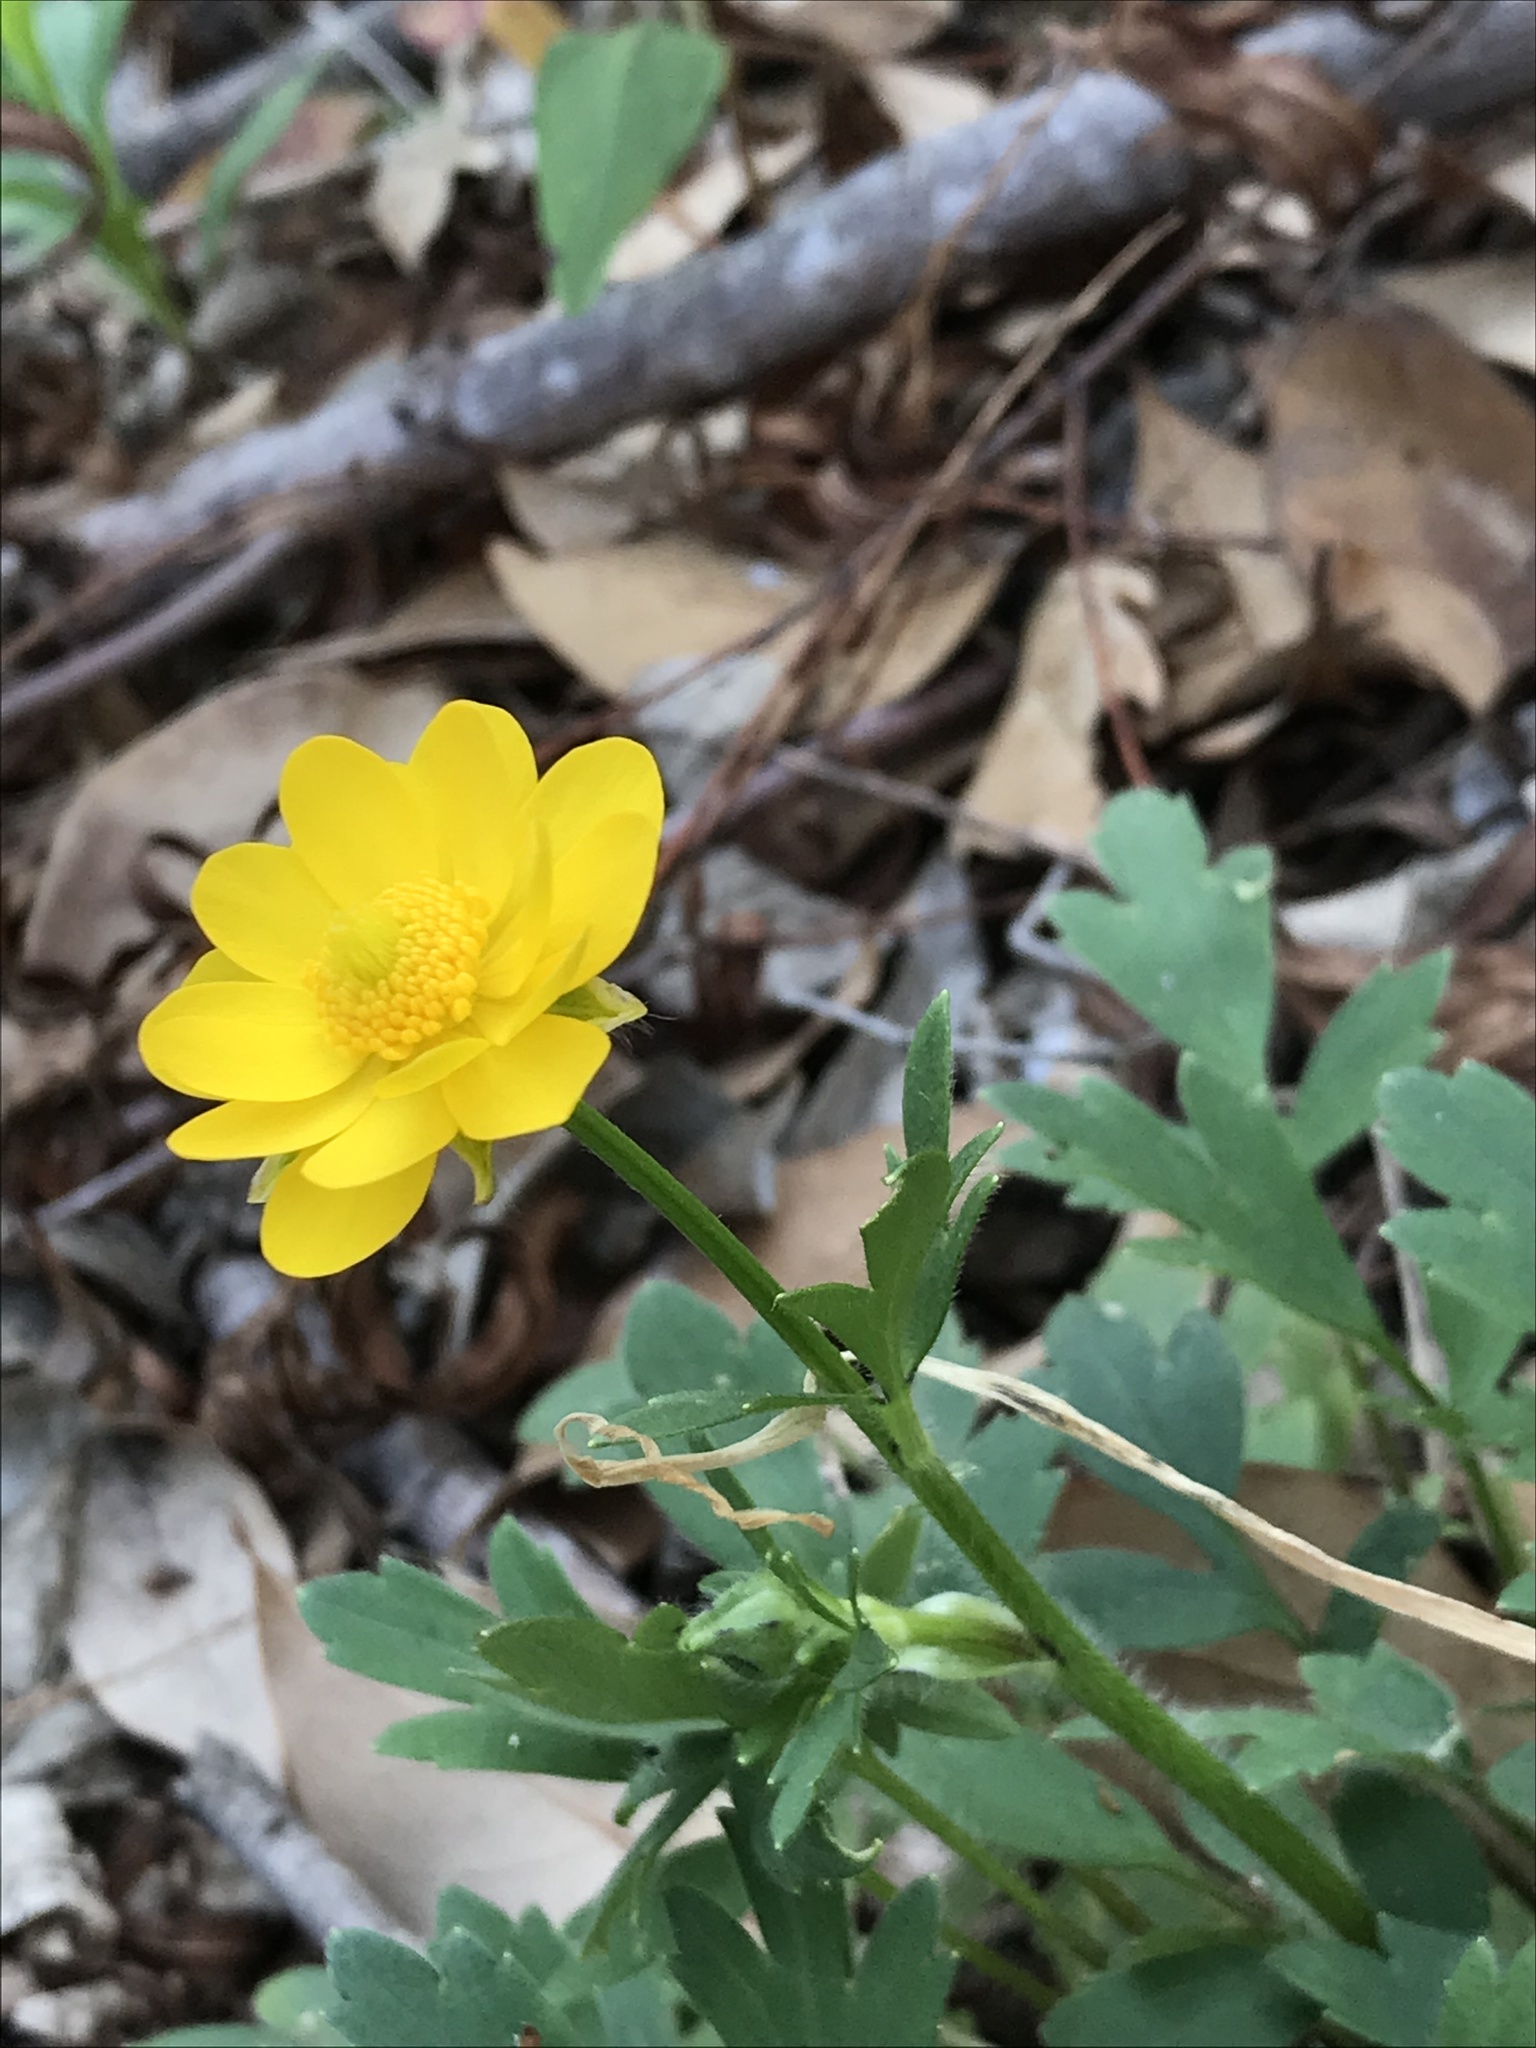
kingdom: Plantae
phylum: Tracheophyta
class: Magnoliopsida
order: Ranunculales
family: Ranunculaceae
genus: Ranunculus
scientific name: Ranunculus macranthus
